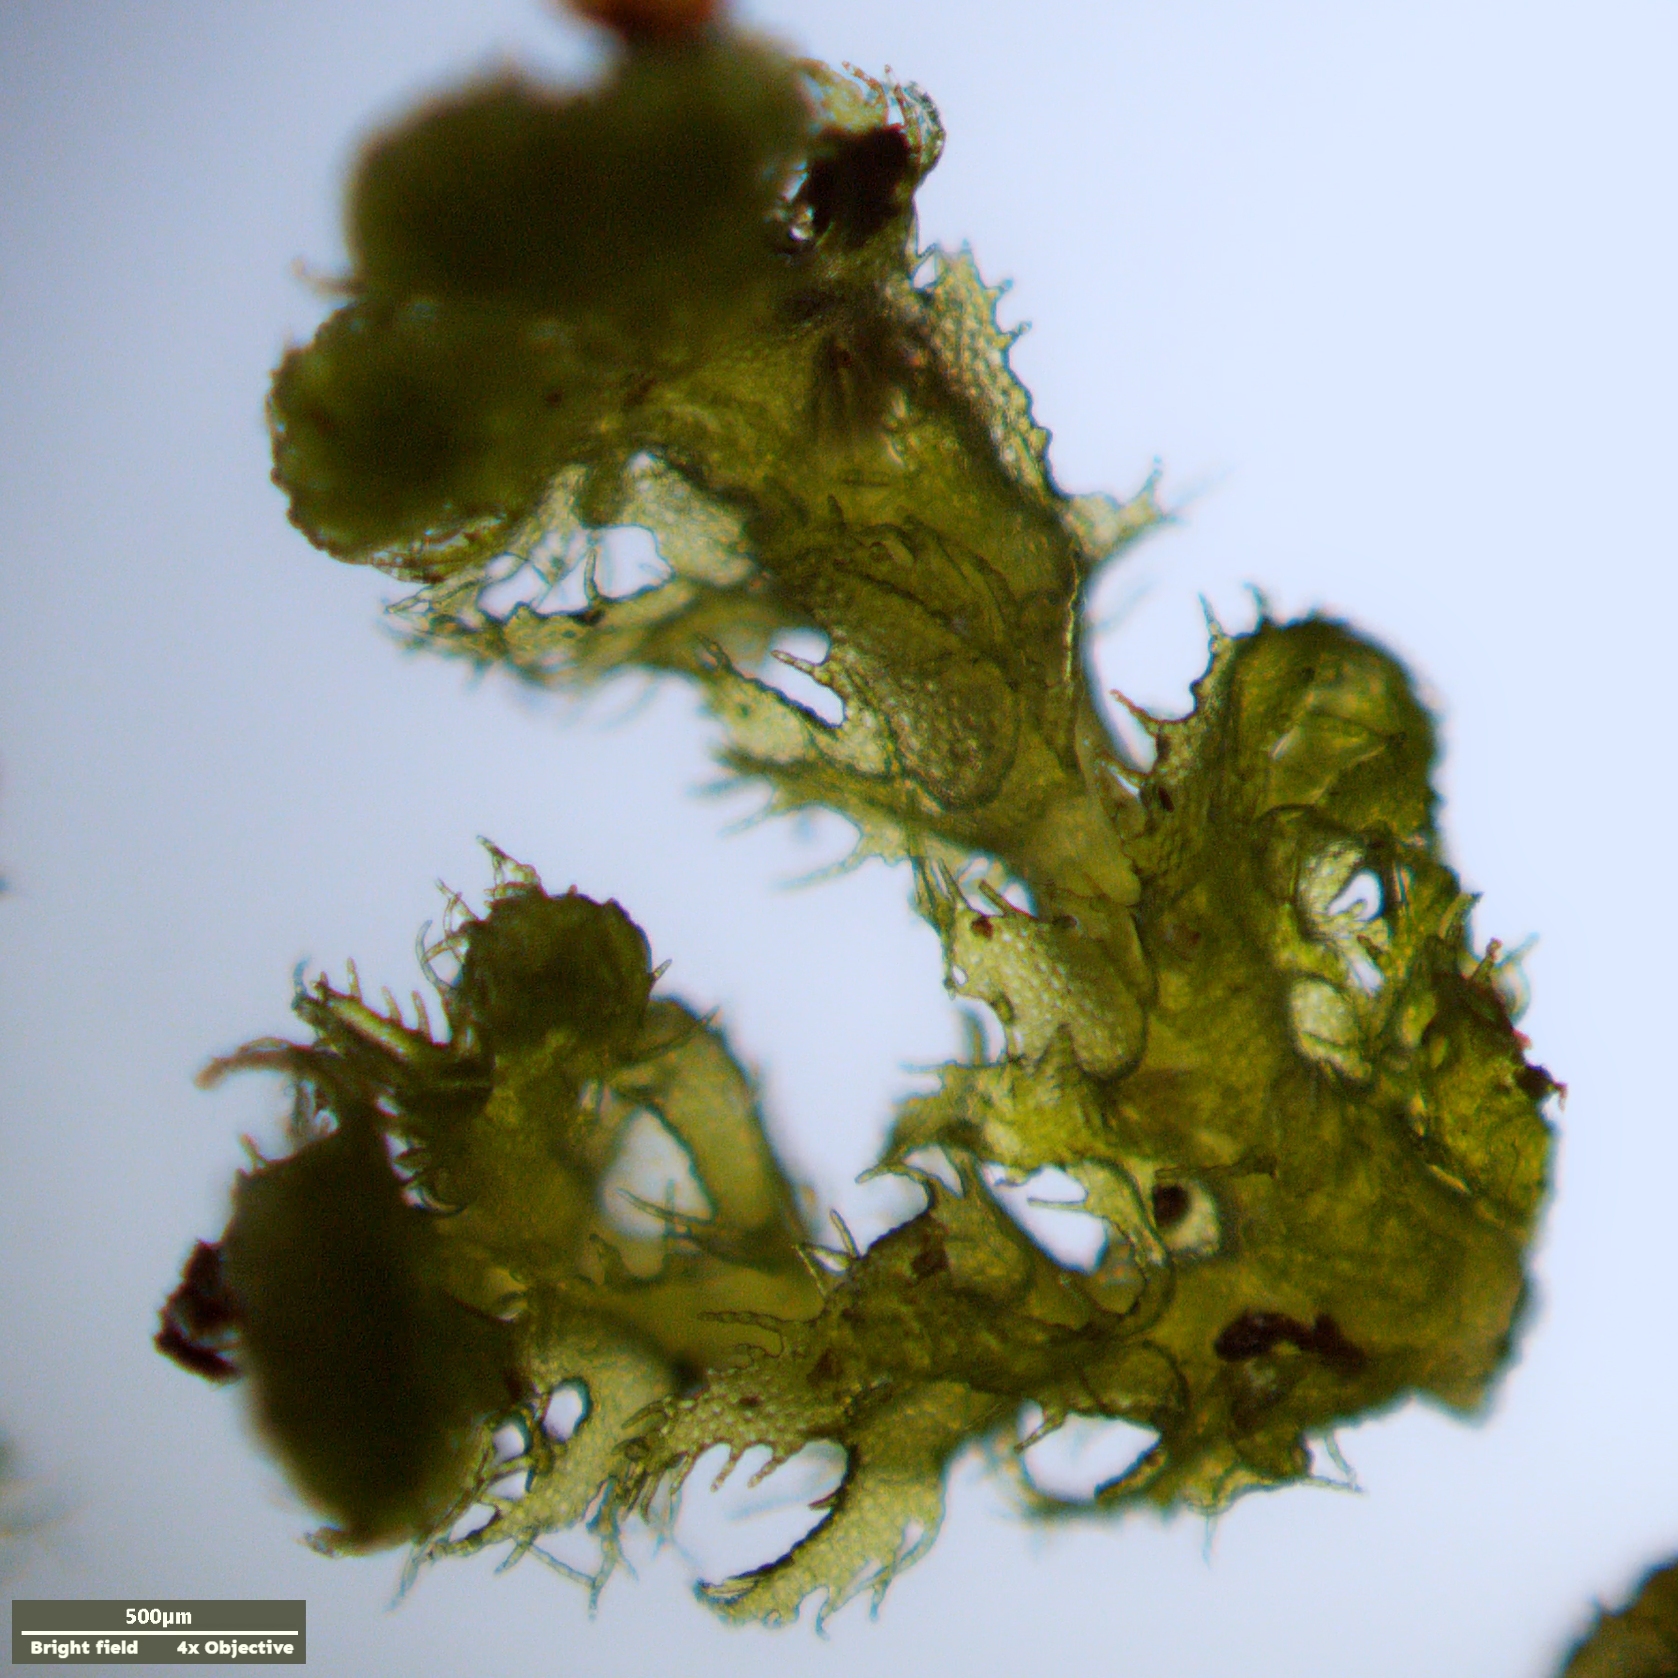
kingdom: Plantae
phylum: Marchantiophyta
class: Jungermanniopsida
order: Ptilidiales
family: Ptilidiaceae
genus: Ptilidium
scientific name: Ptilidium pulcherrimum
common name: Tree fringewort
